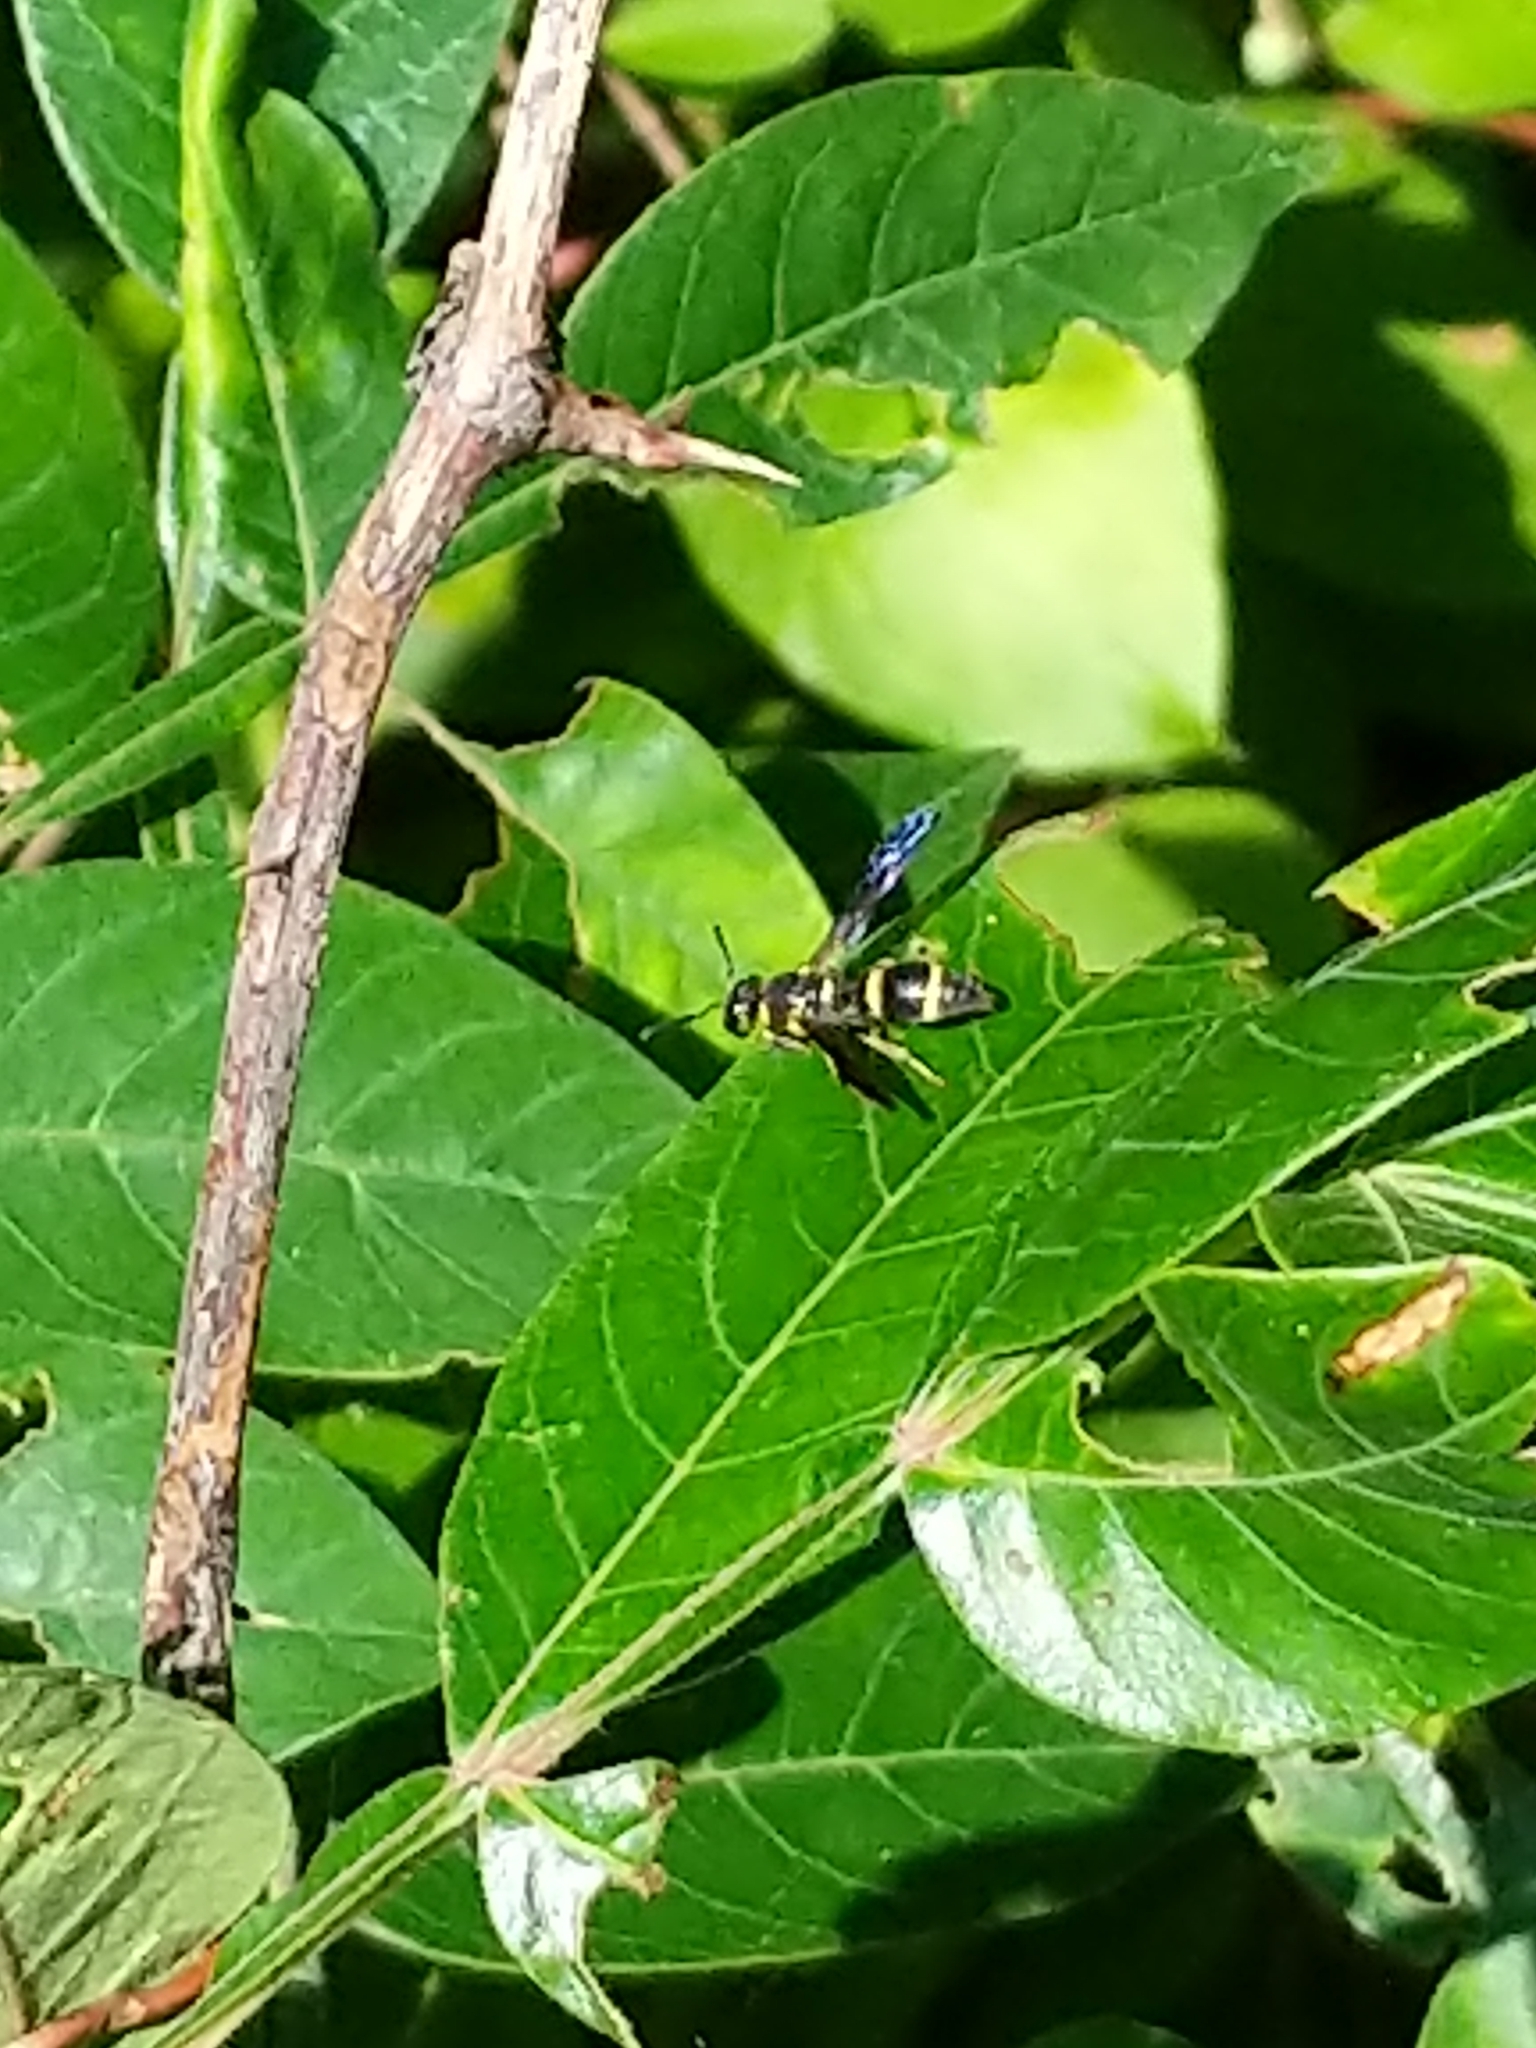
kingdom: Animalia
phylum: Arthropoda
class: Insecta
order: Hymenoptera
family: Eumenidae
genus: Parancistrocerus
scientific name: Parancistrocerus perennis
